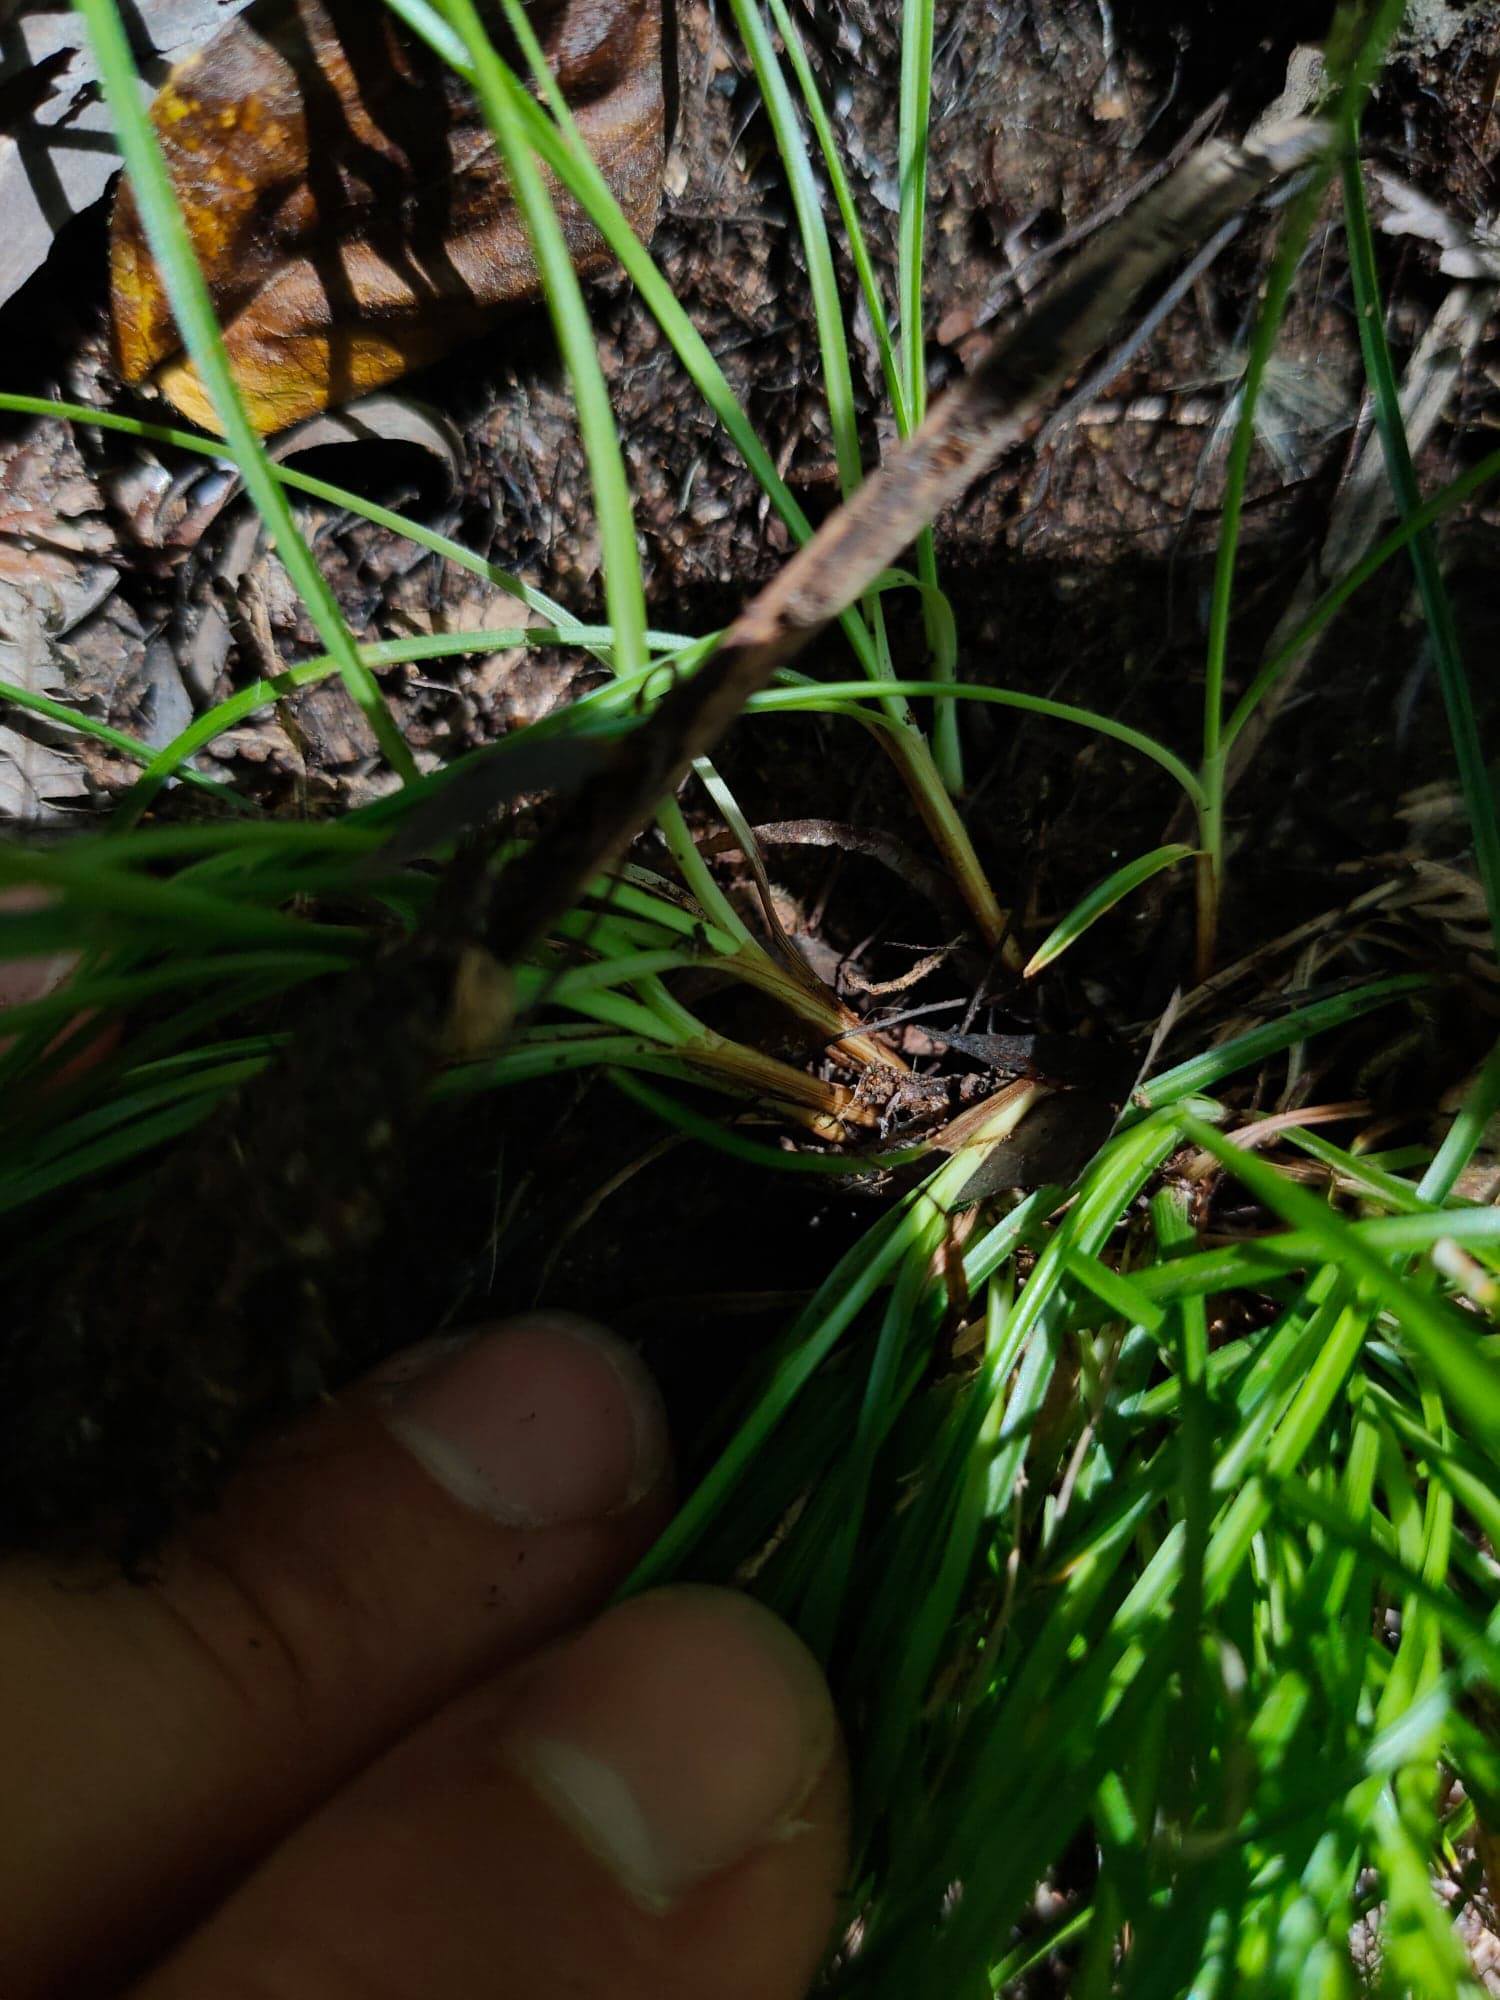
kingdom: Plantae
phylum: Tracheophyta
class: Liliopsida
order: Poales
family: Cyperaceae
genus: Carex
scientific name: Carex divulsa
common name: Grassland sedge
